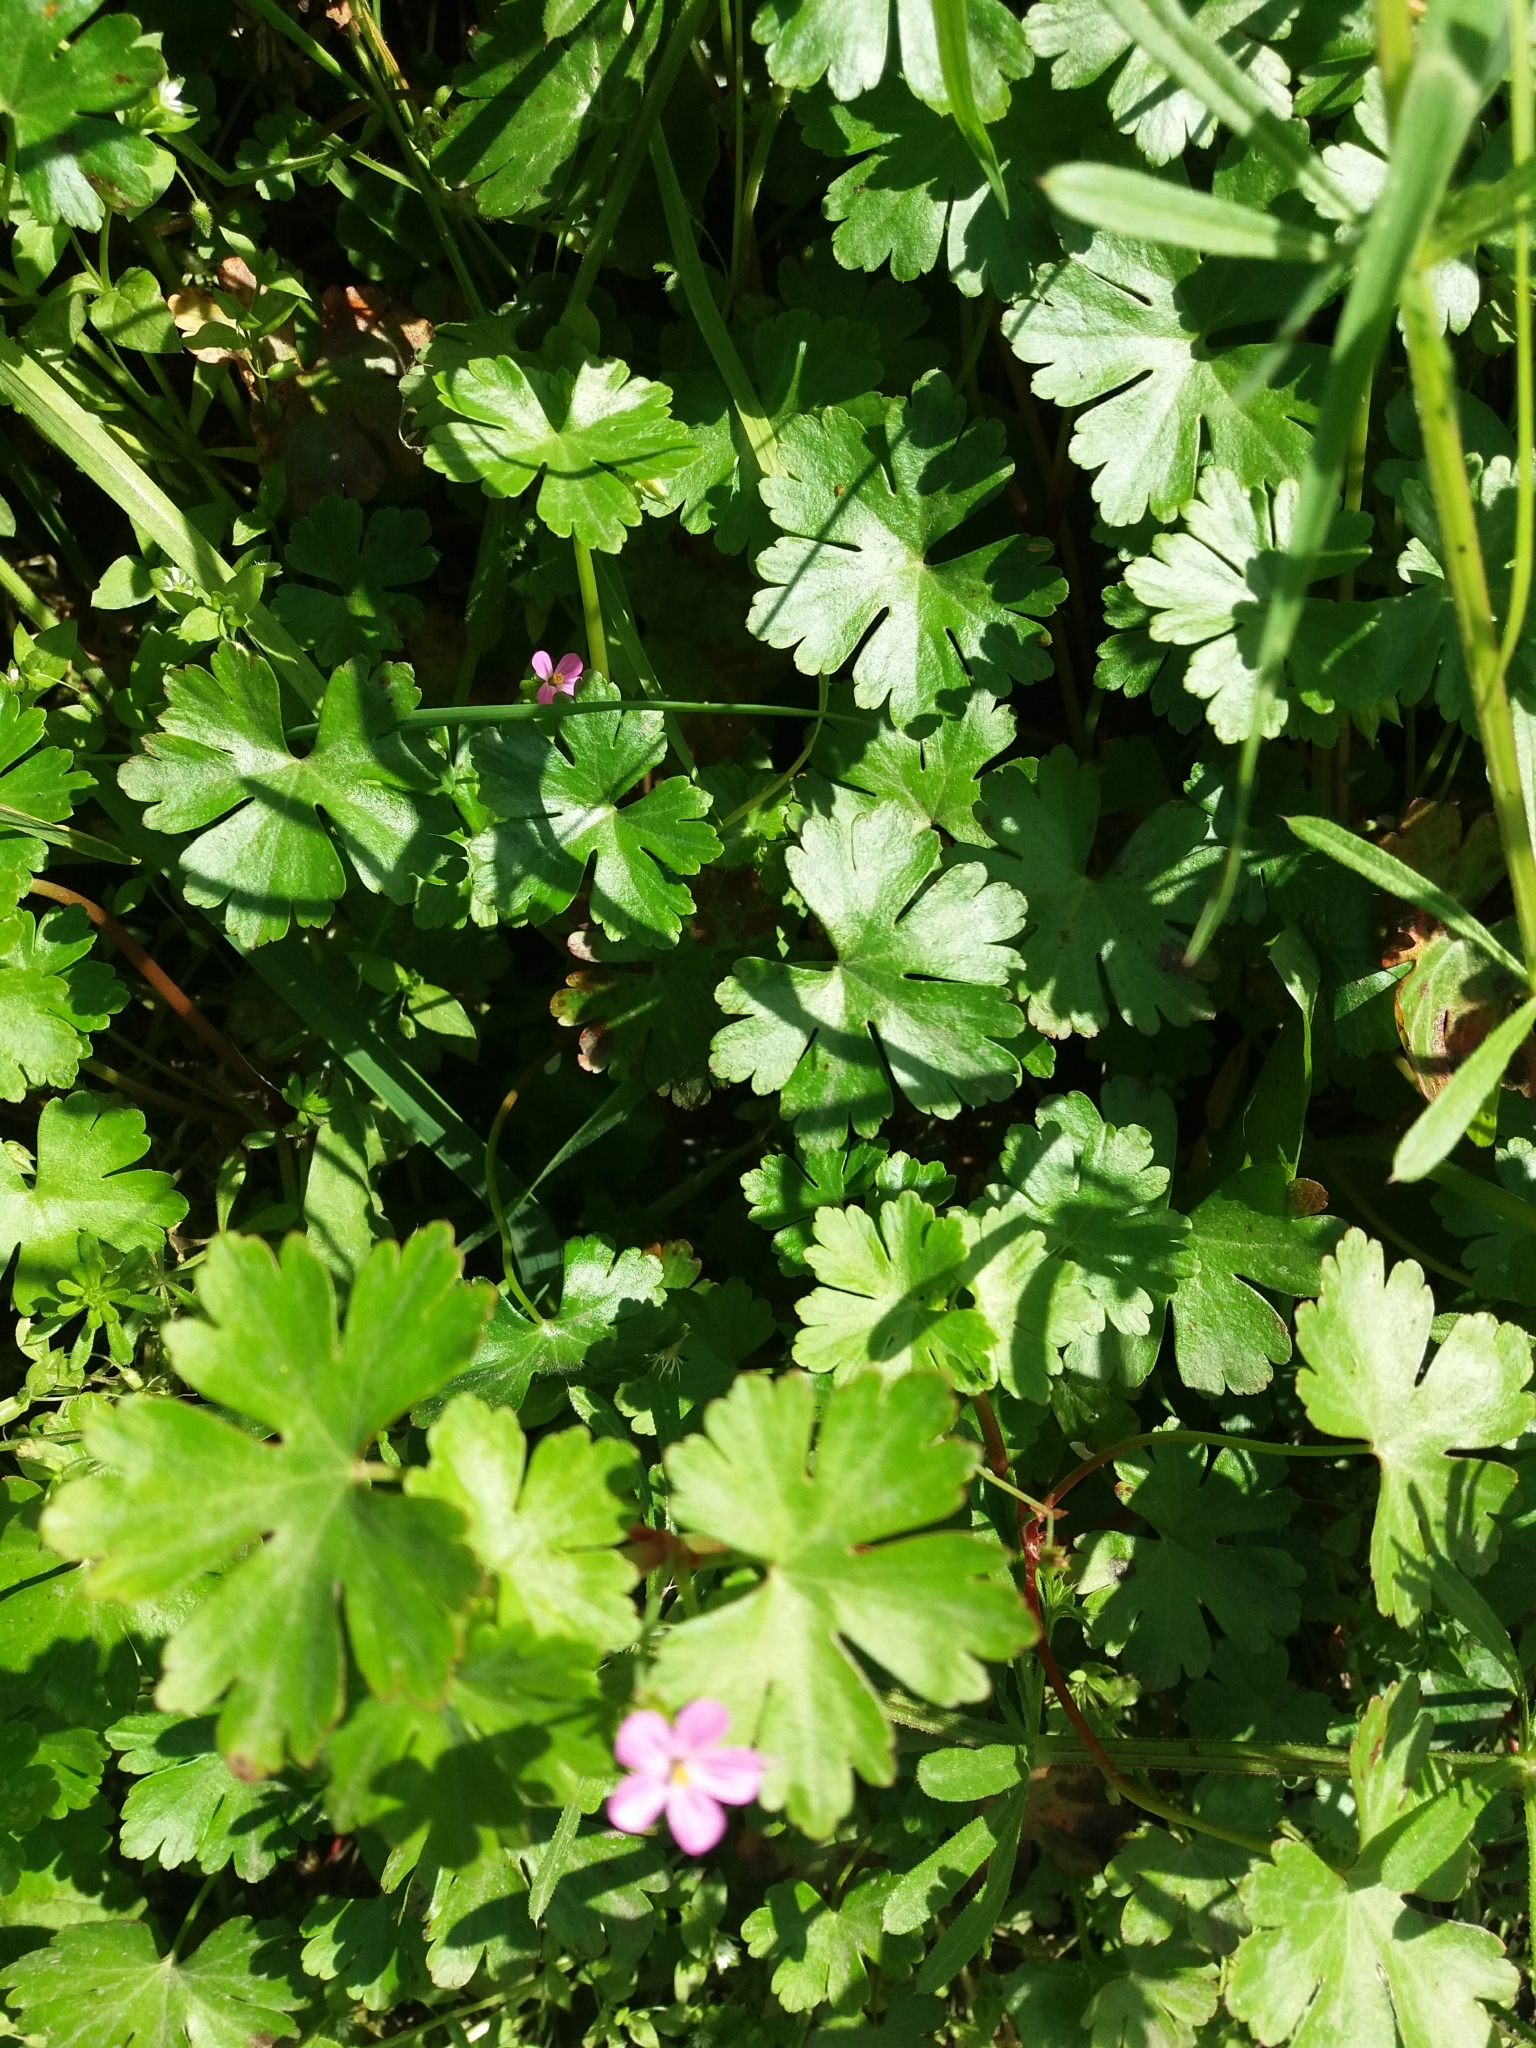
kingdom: Plantae
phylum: Tracheophyta
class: Magnoliopsida
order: Geraniales
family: Geraniaceae
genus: Geranium
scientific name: Geranium lucidum
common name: Shining crane's-bill
